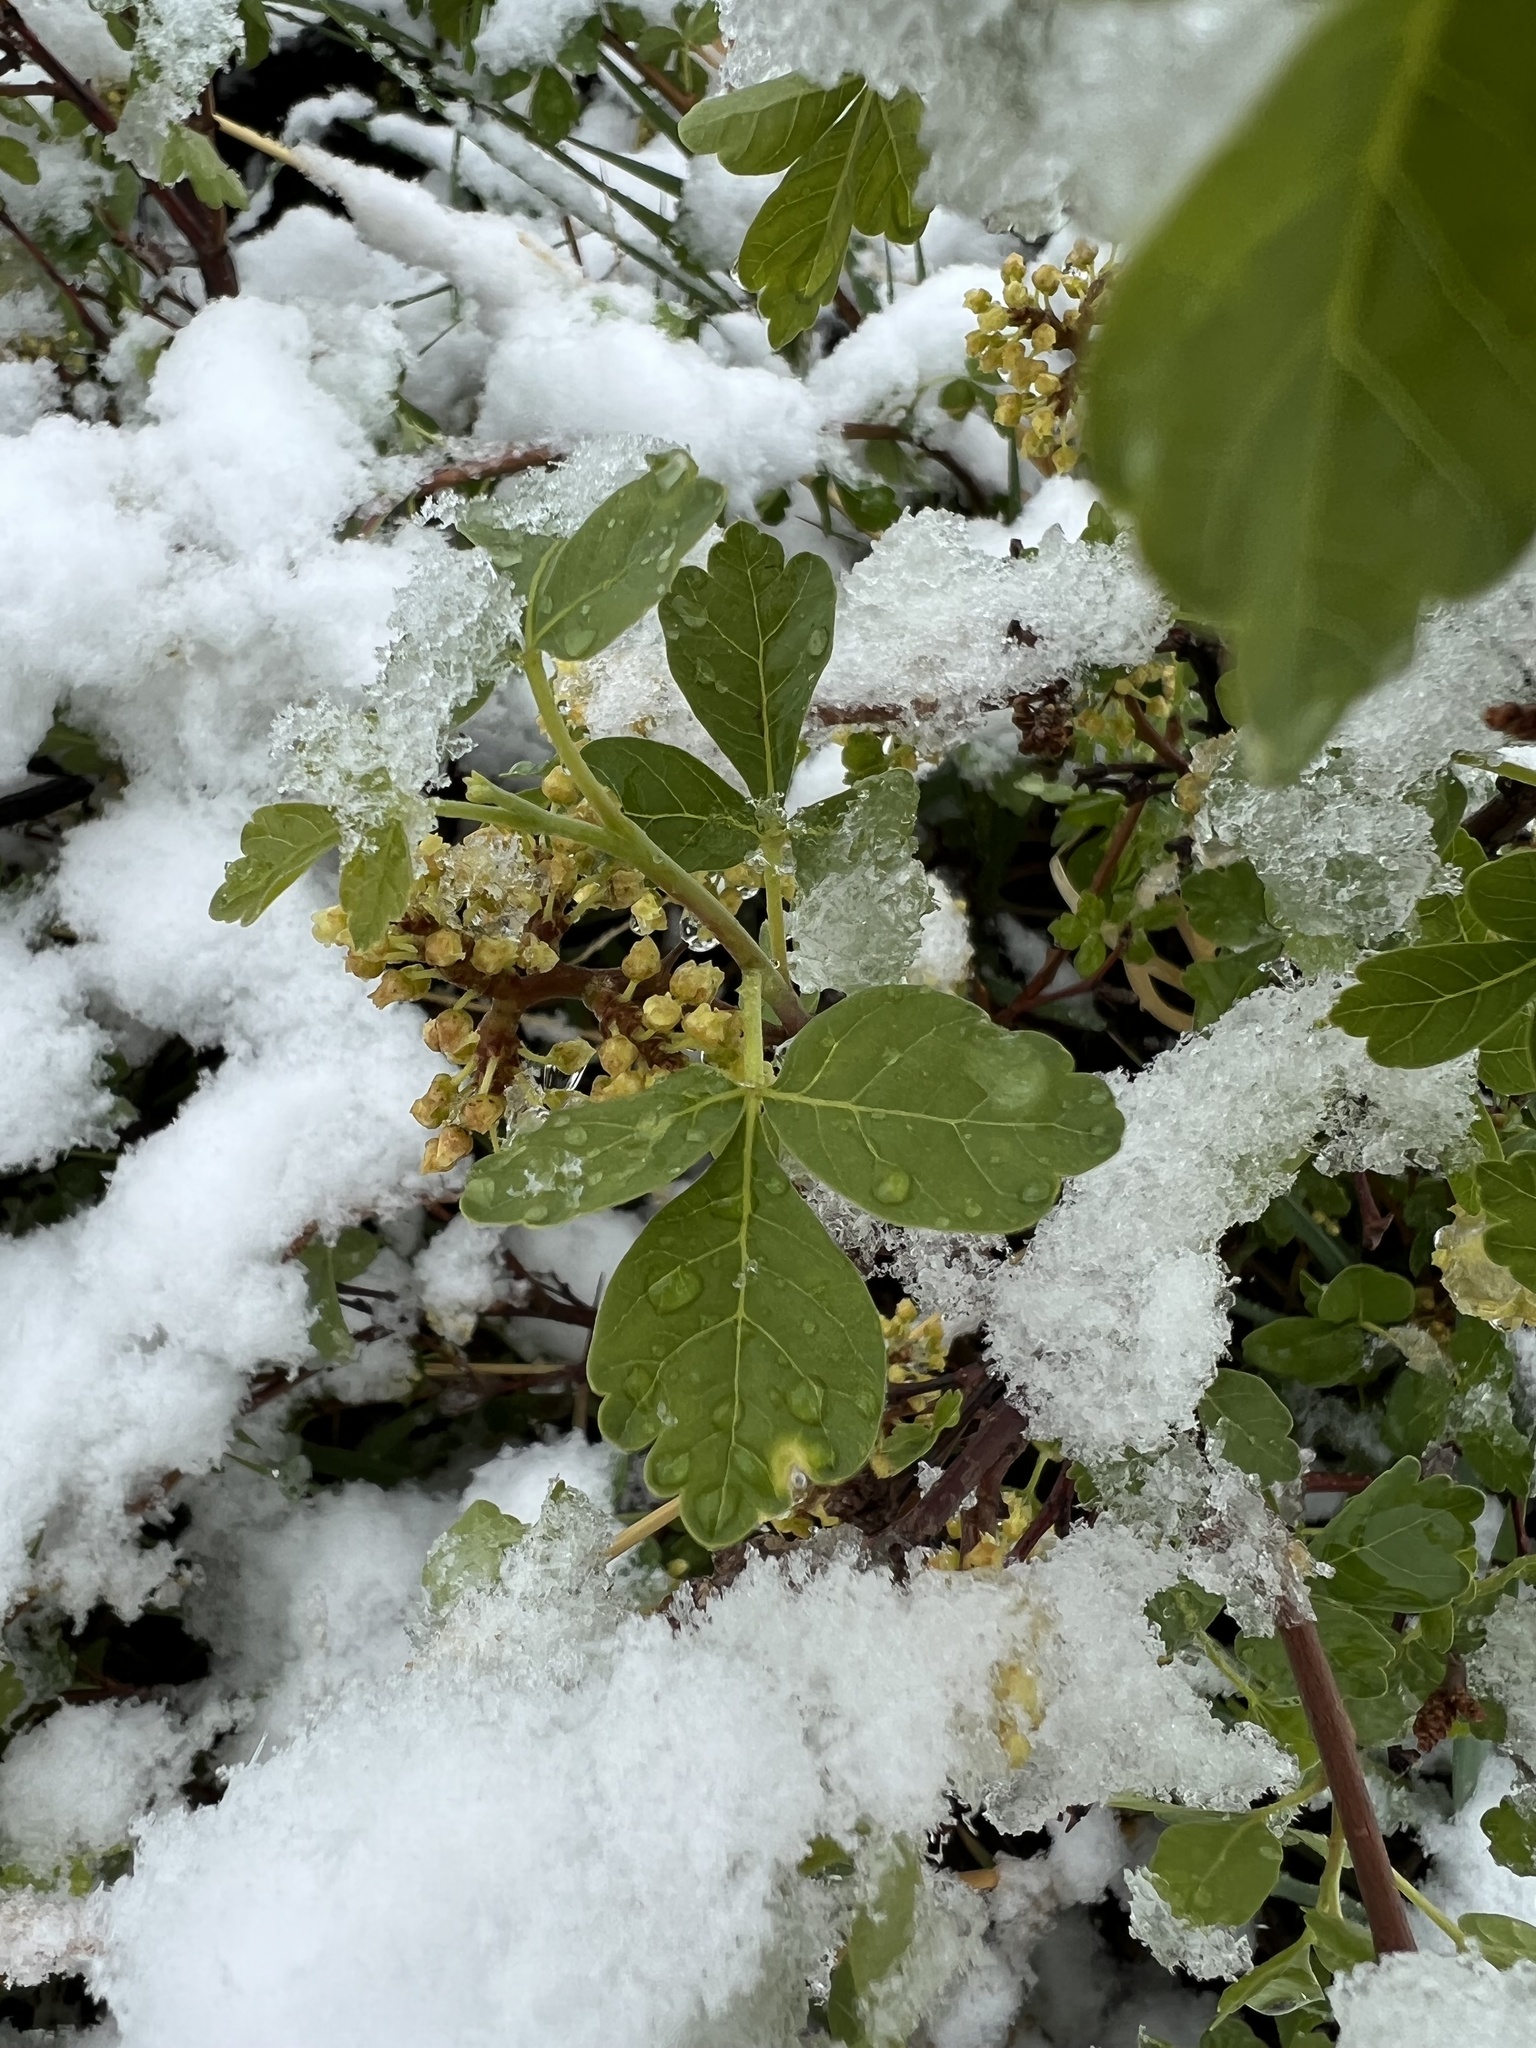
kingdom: Plantae
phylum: Tracheophyta
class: Magnoliopsida
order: Sapindales
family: Anacardiaceae
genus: Rhus
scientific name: Rhus trilobata
